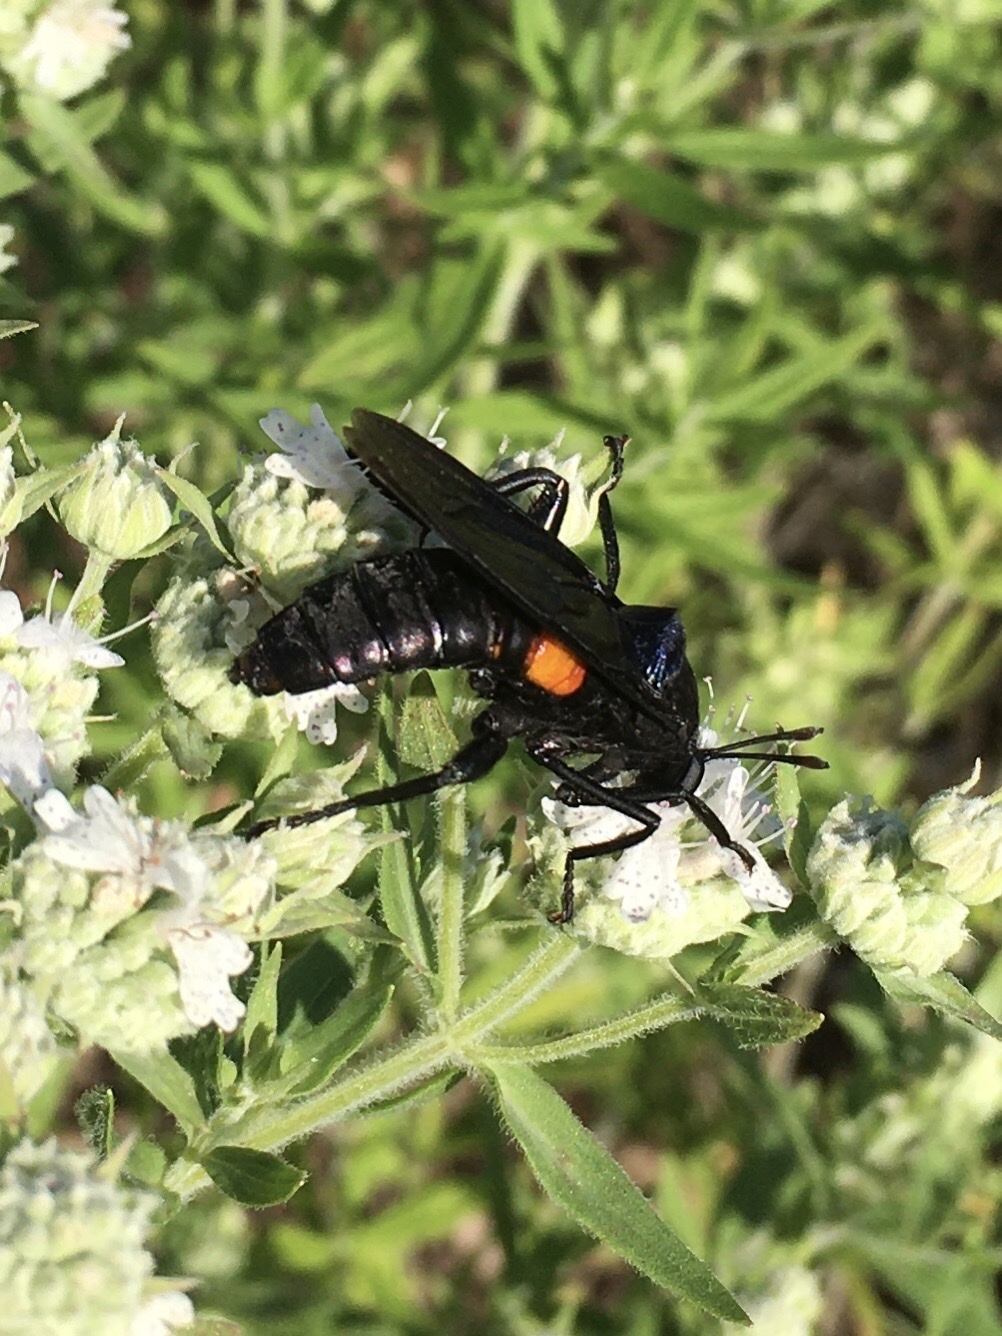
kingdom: Animalia
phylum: Arthropoda
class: Insecta
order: Diptera
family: Mydidae
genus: Mydas
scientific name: Mydas clavatus
